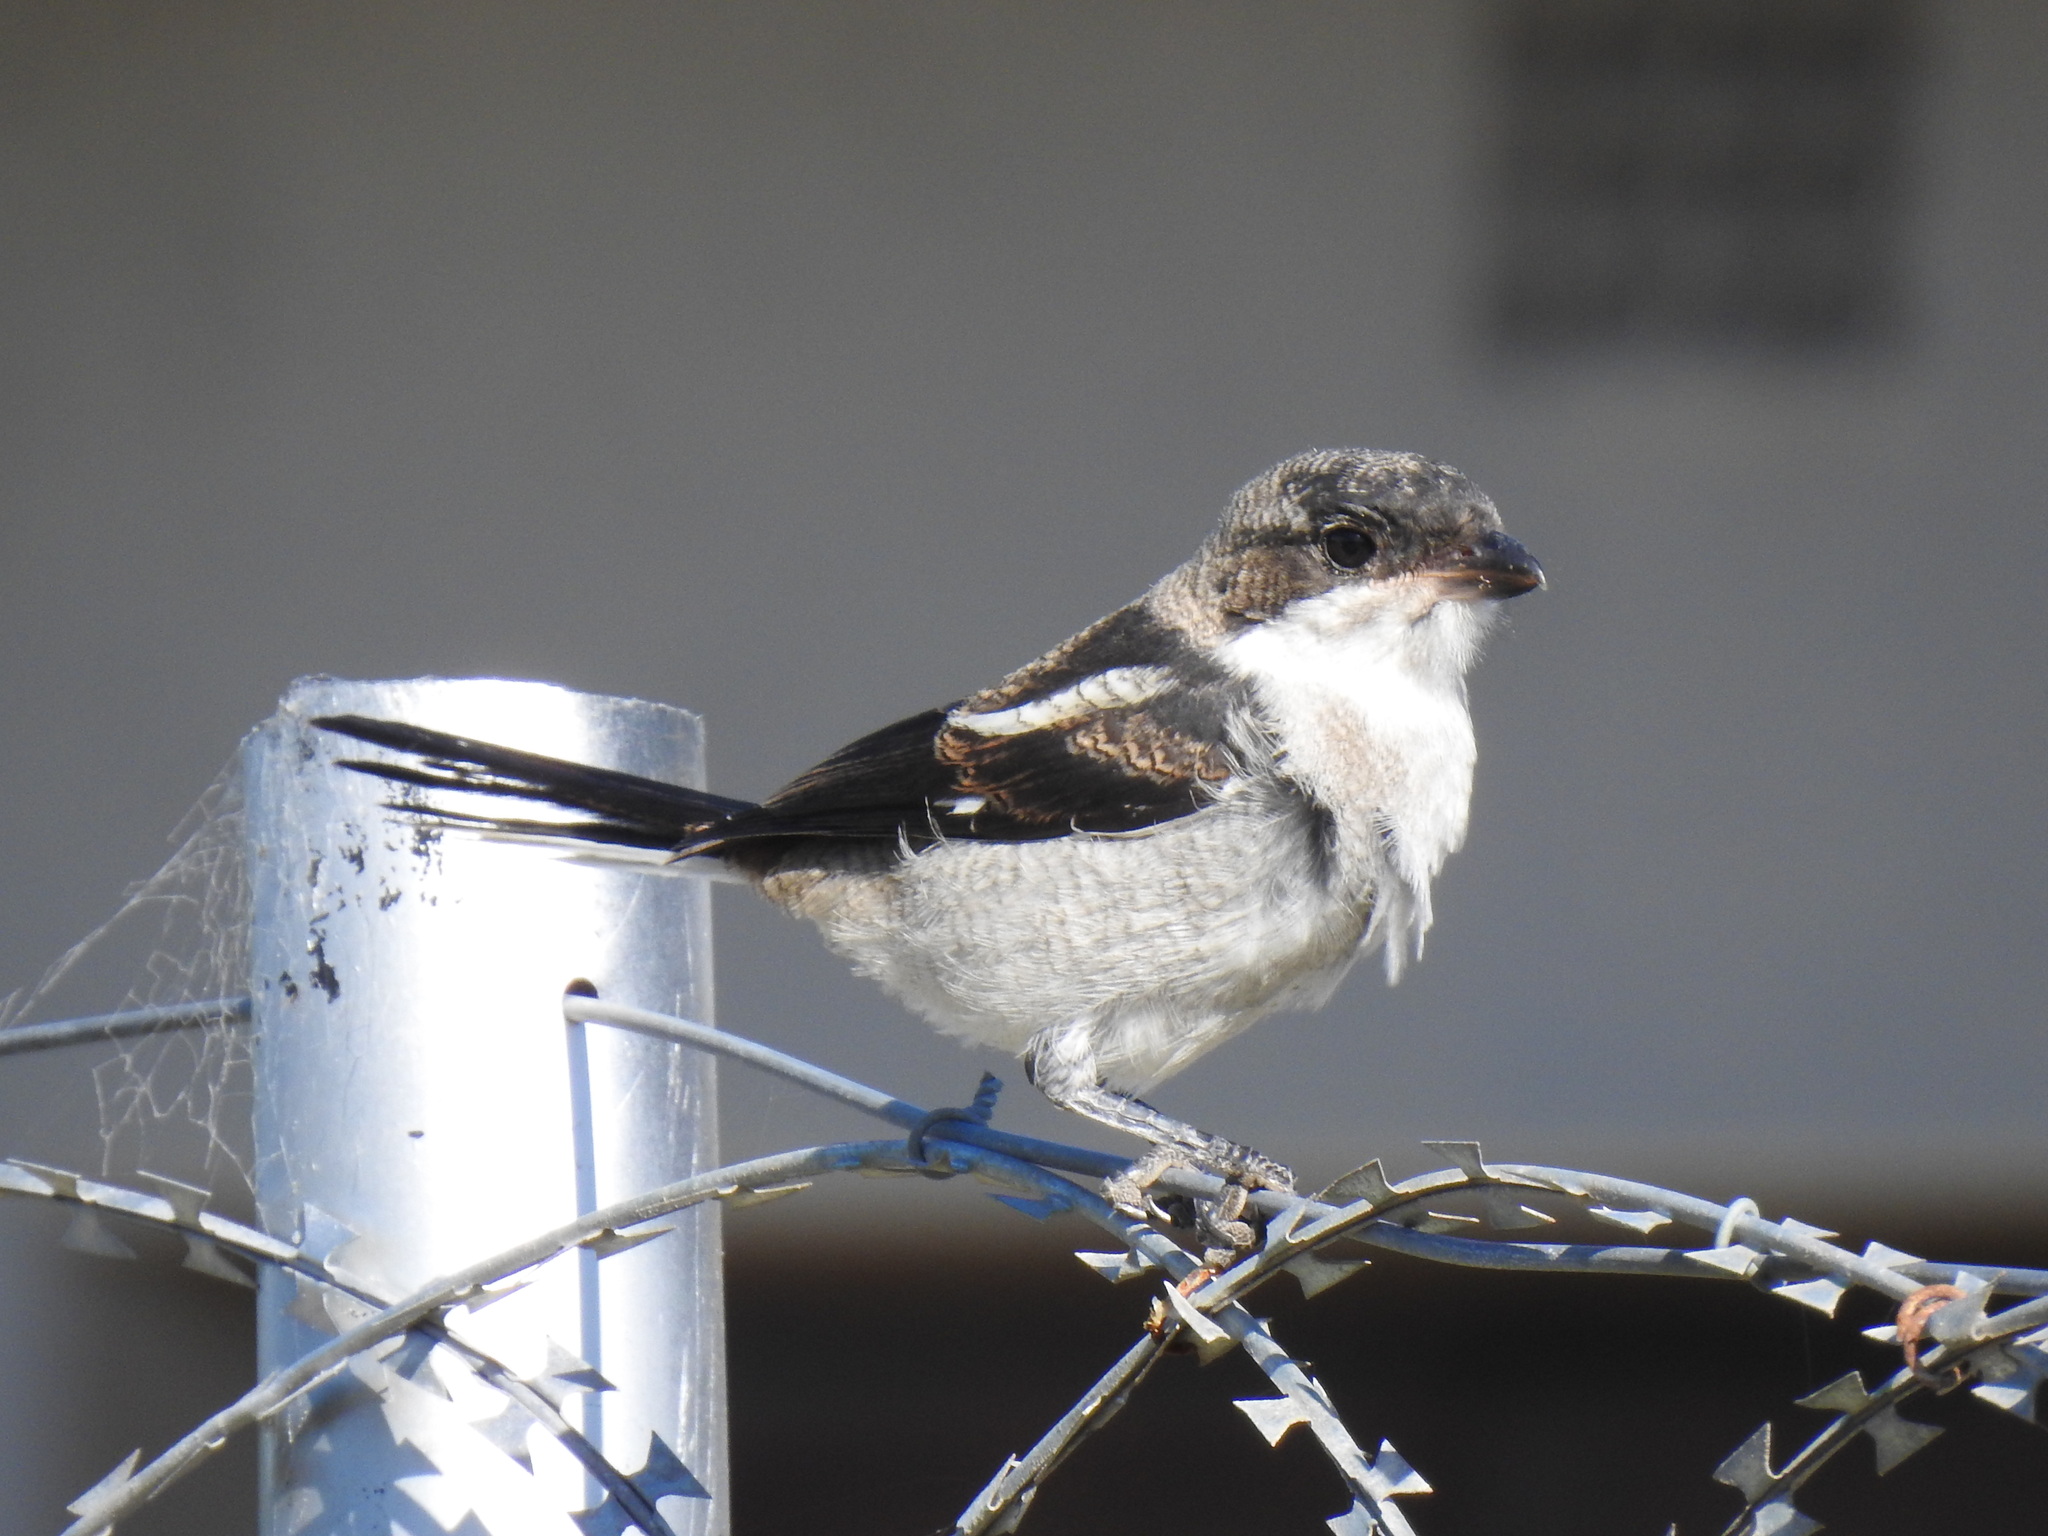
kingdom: Animalia
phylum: Chordata
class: Aves
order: Passeriformes
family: Laniidae
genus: Lanius
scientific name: Lanius collaris
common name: Southern fiscal
